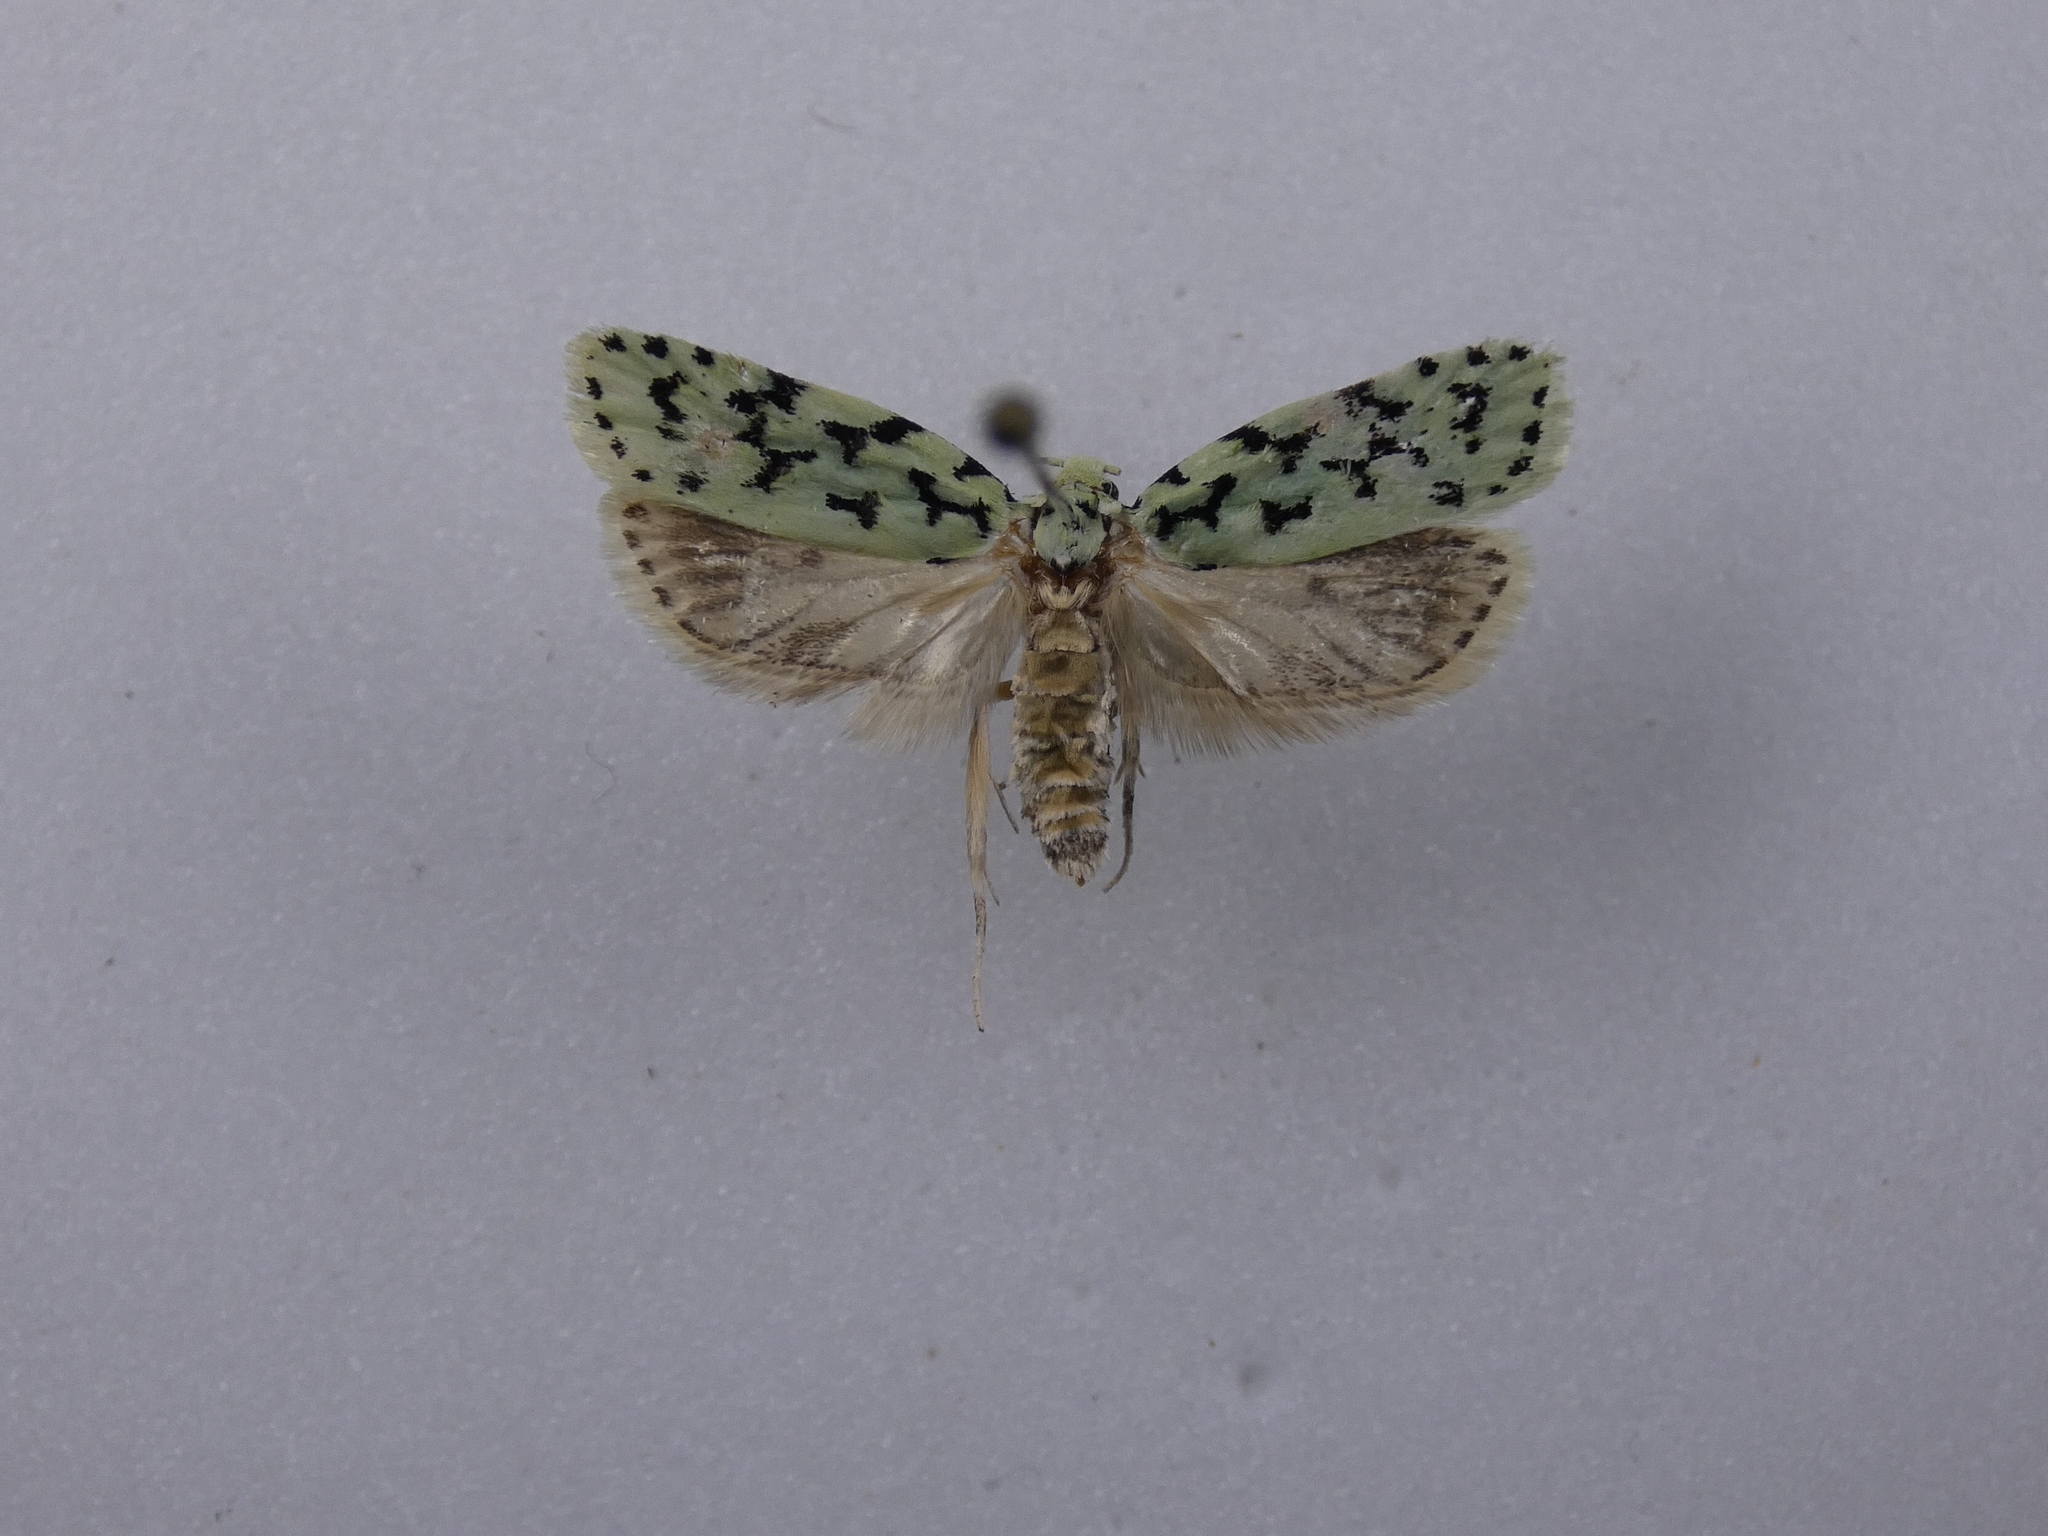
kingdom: Animalia
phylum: Arthropoda
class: Insecta
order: Lepidoptera
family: Oecophoridae
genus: Izatha
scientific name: Izatha huttoni
